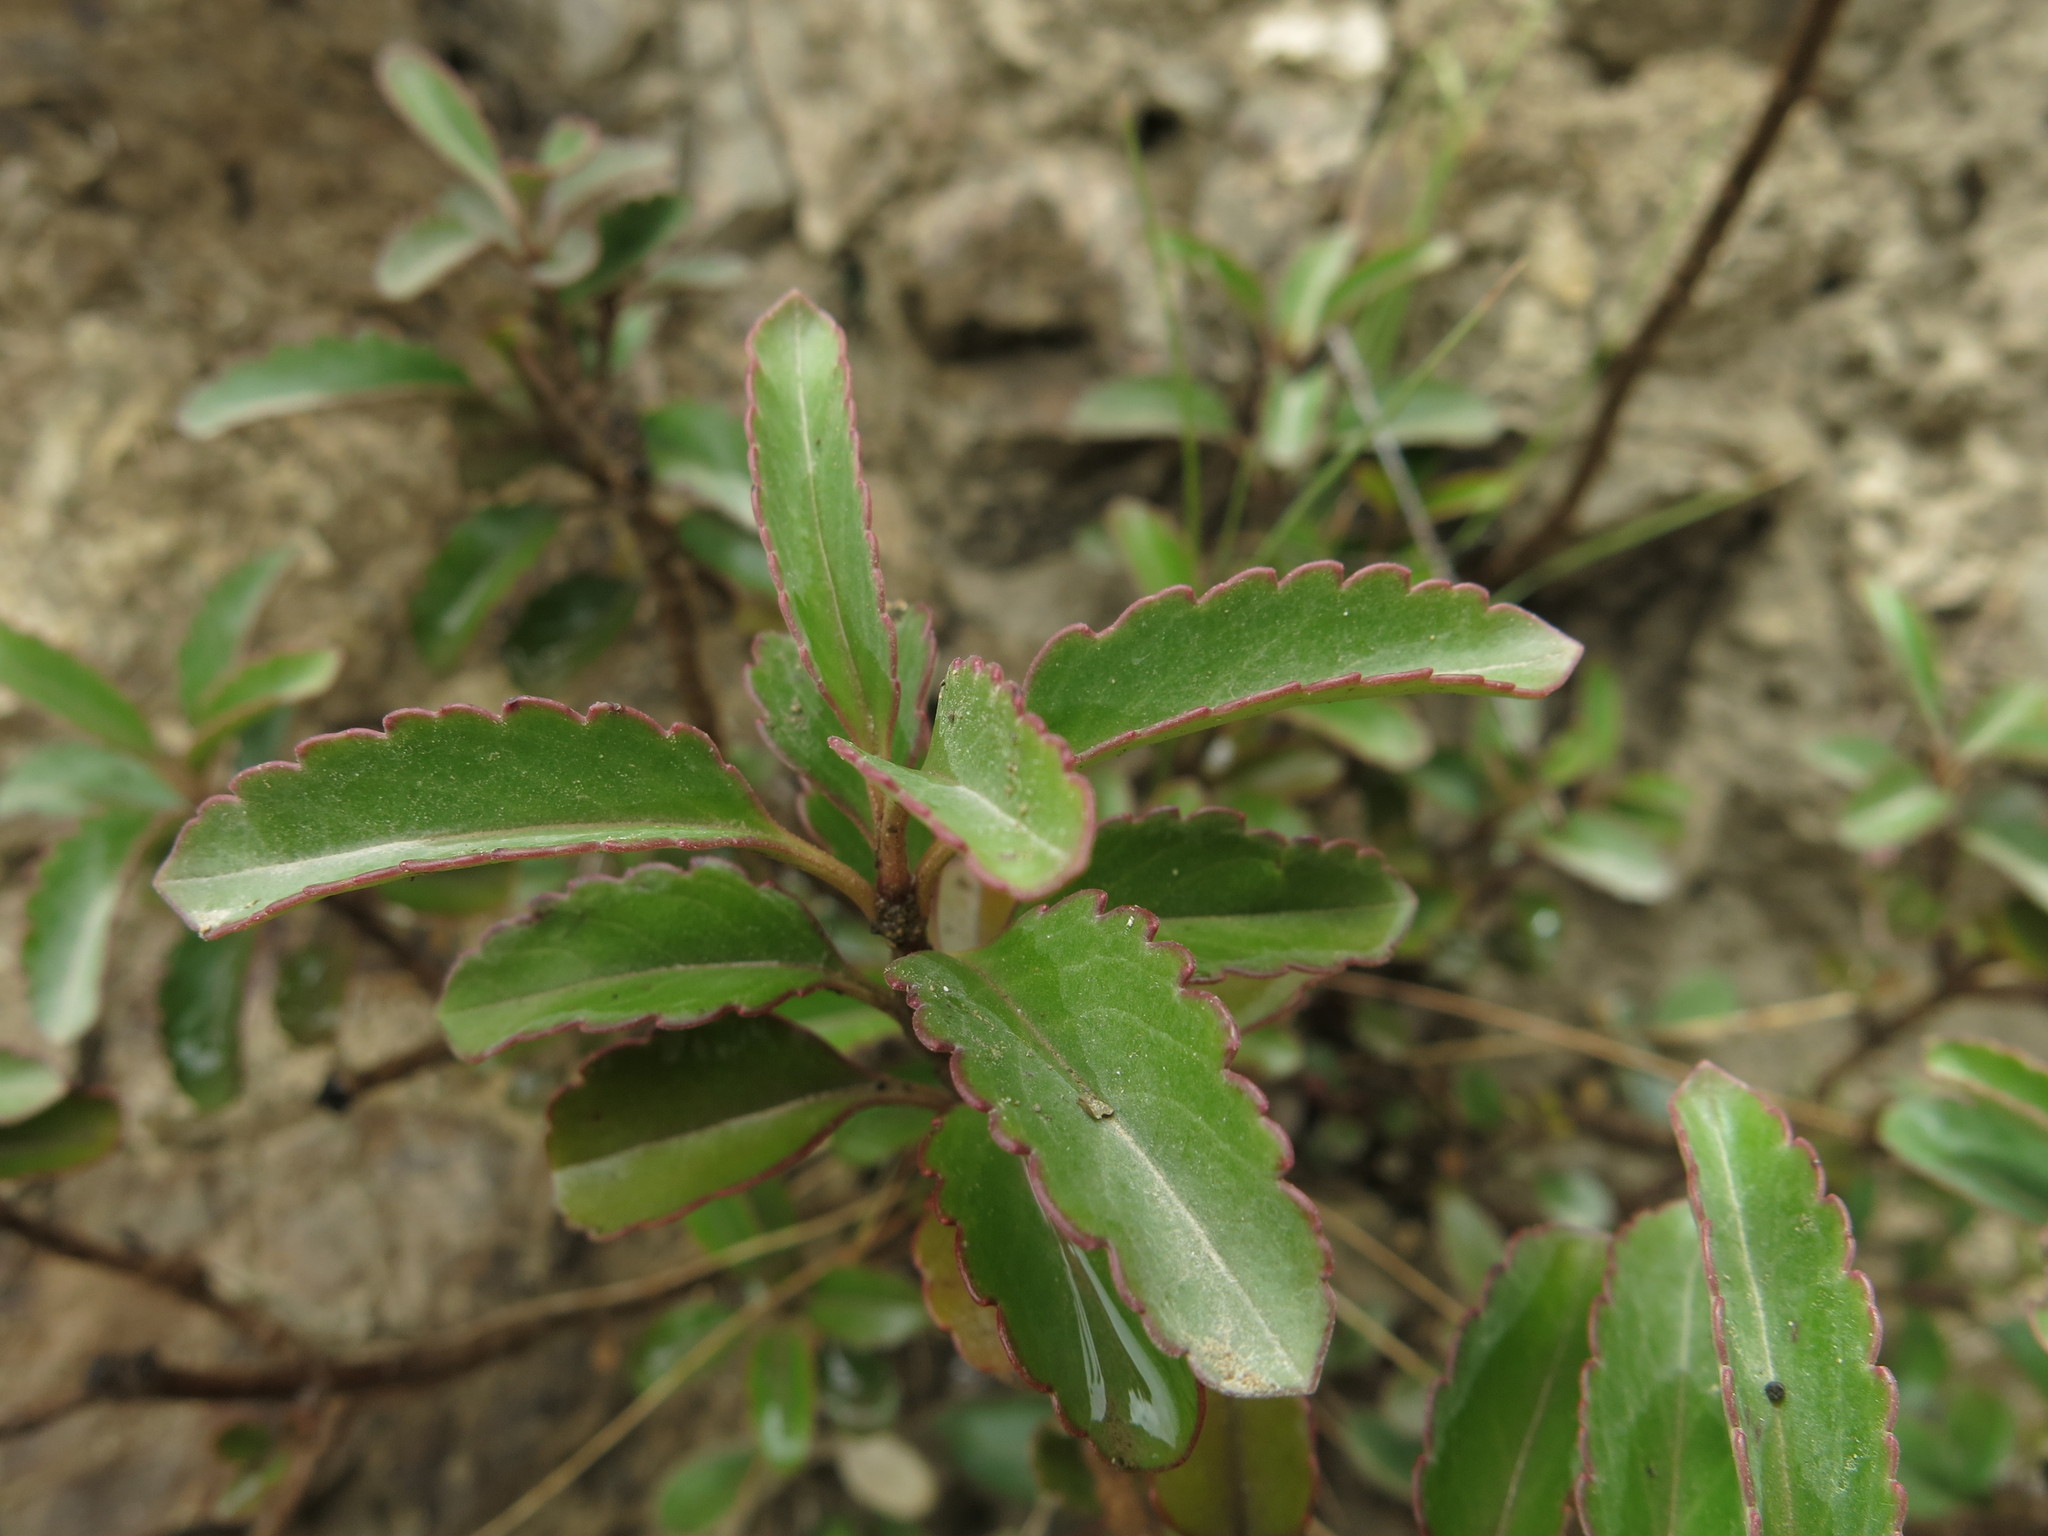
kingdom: Plantae
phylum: Tracheophyta
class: Magnoliopsida
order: Lamiales
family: Plantaginaceae
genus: Veronica
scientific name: Veronica hulkeana
